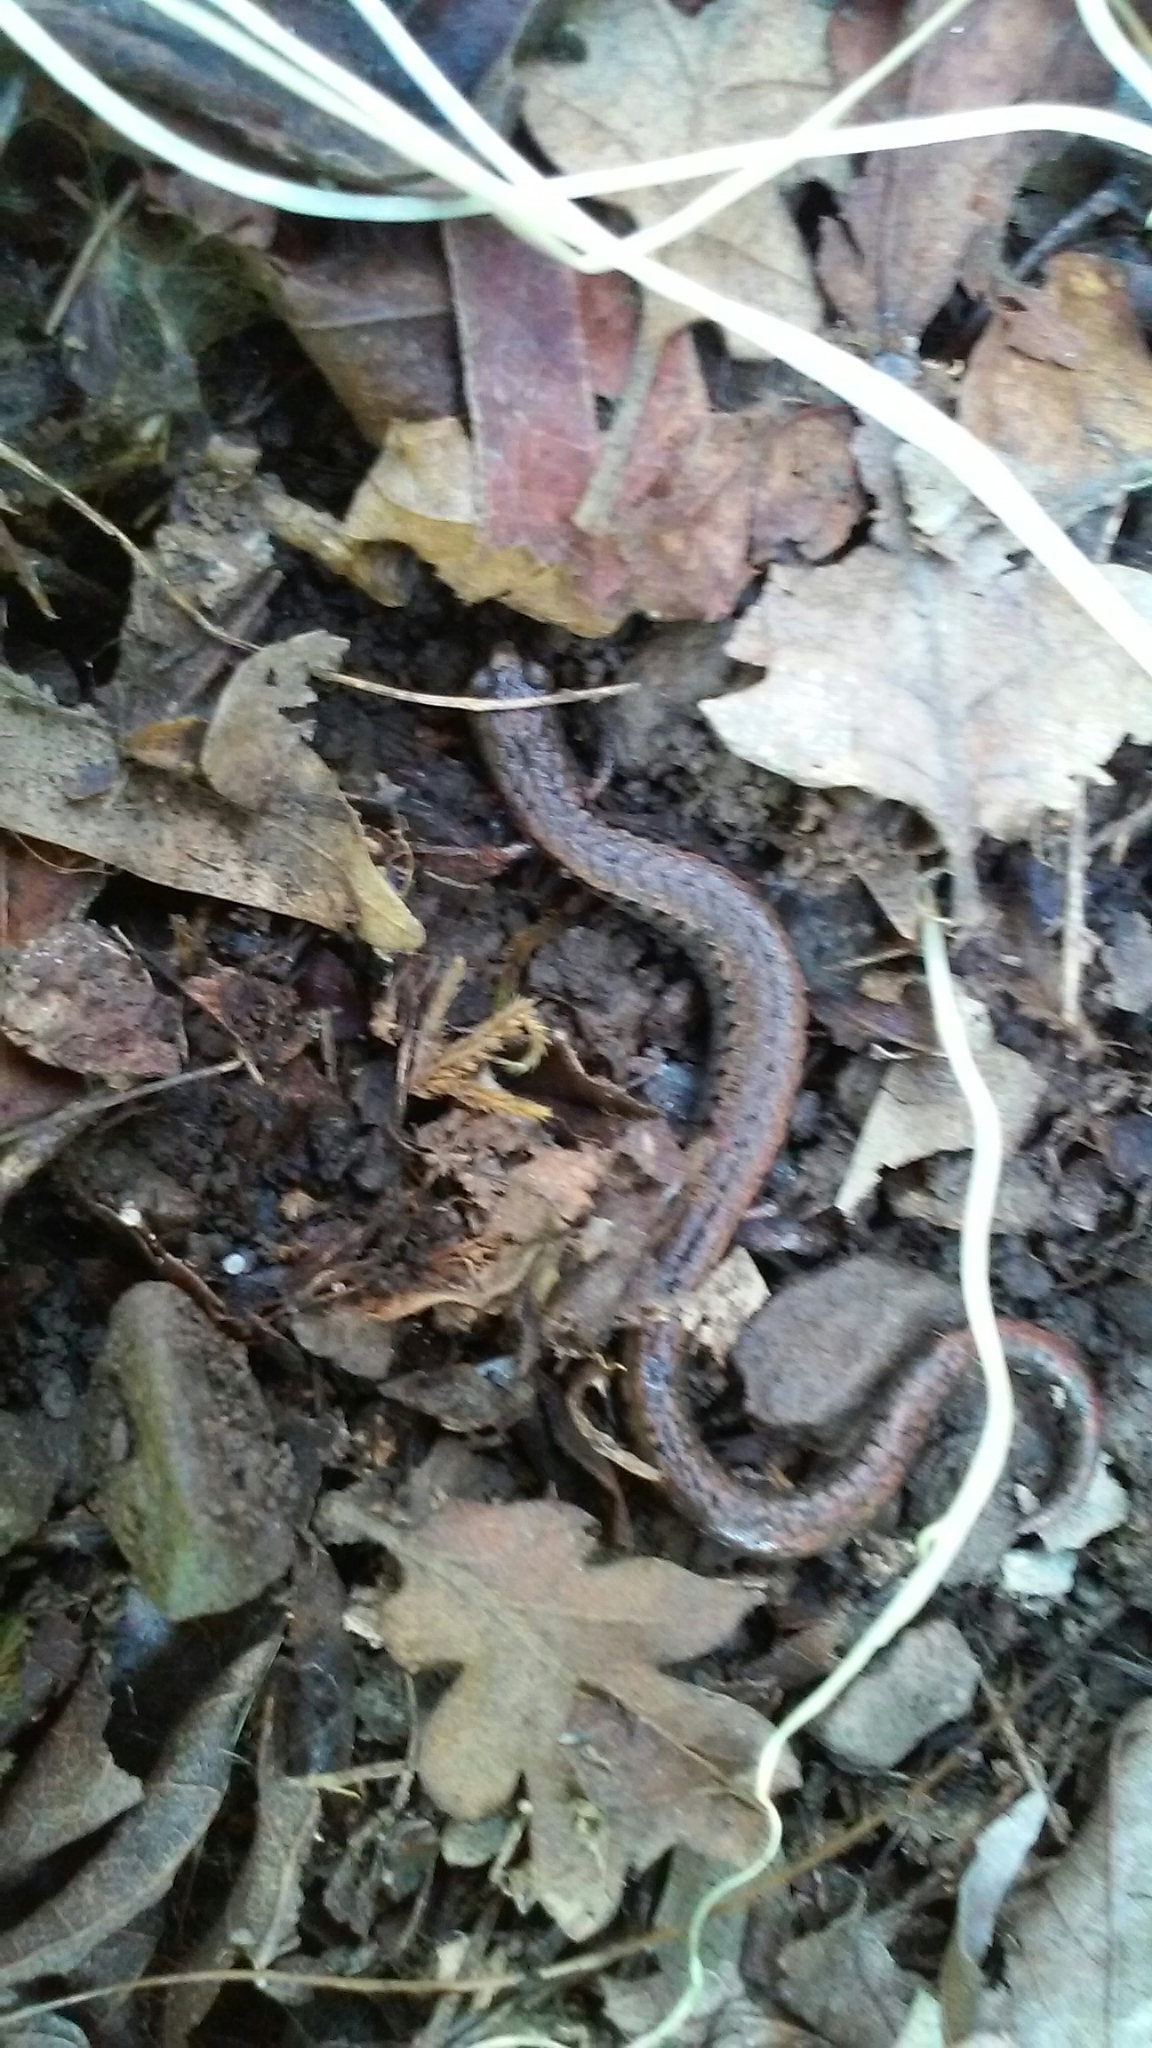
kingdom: Animalia
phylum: Chordata
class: Amphibia
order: Caudata
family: Plethodontidae
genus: Batrachoseps
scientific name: Batrachoseps attenuatus
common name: California slender salamander
